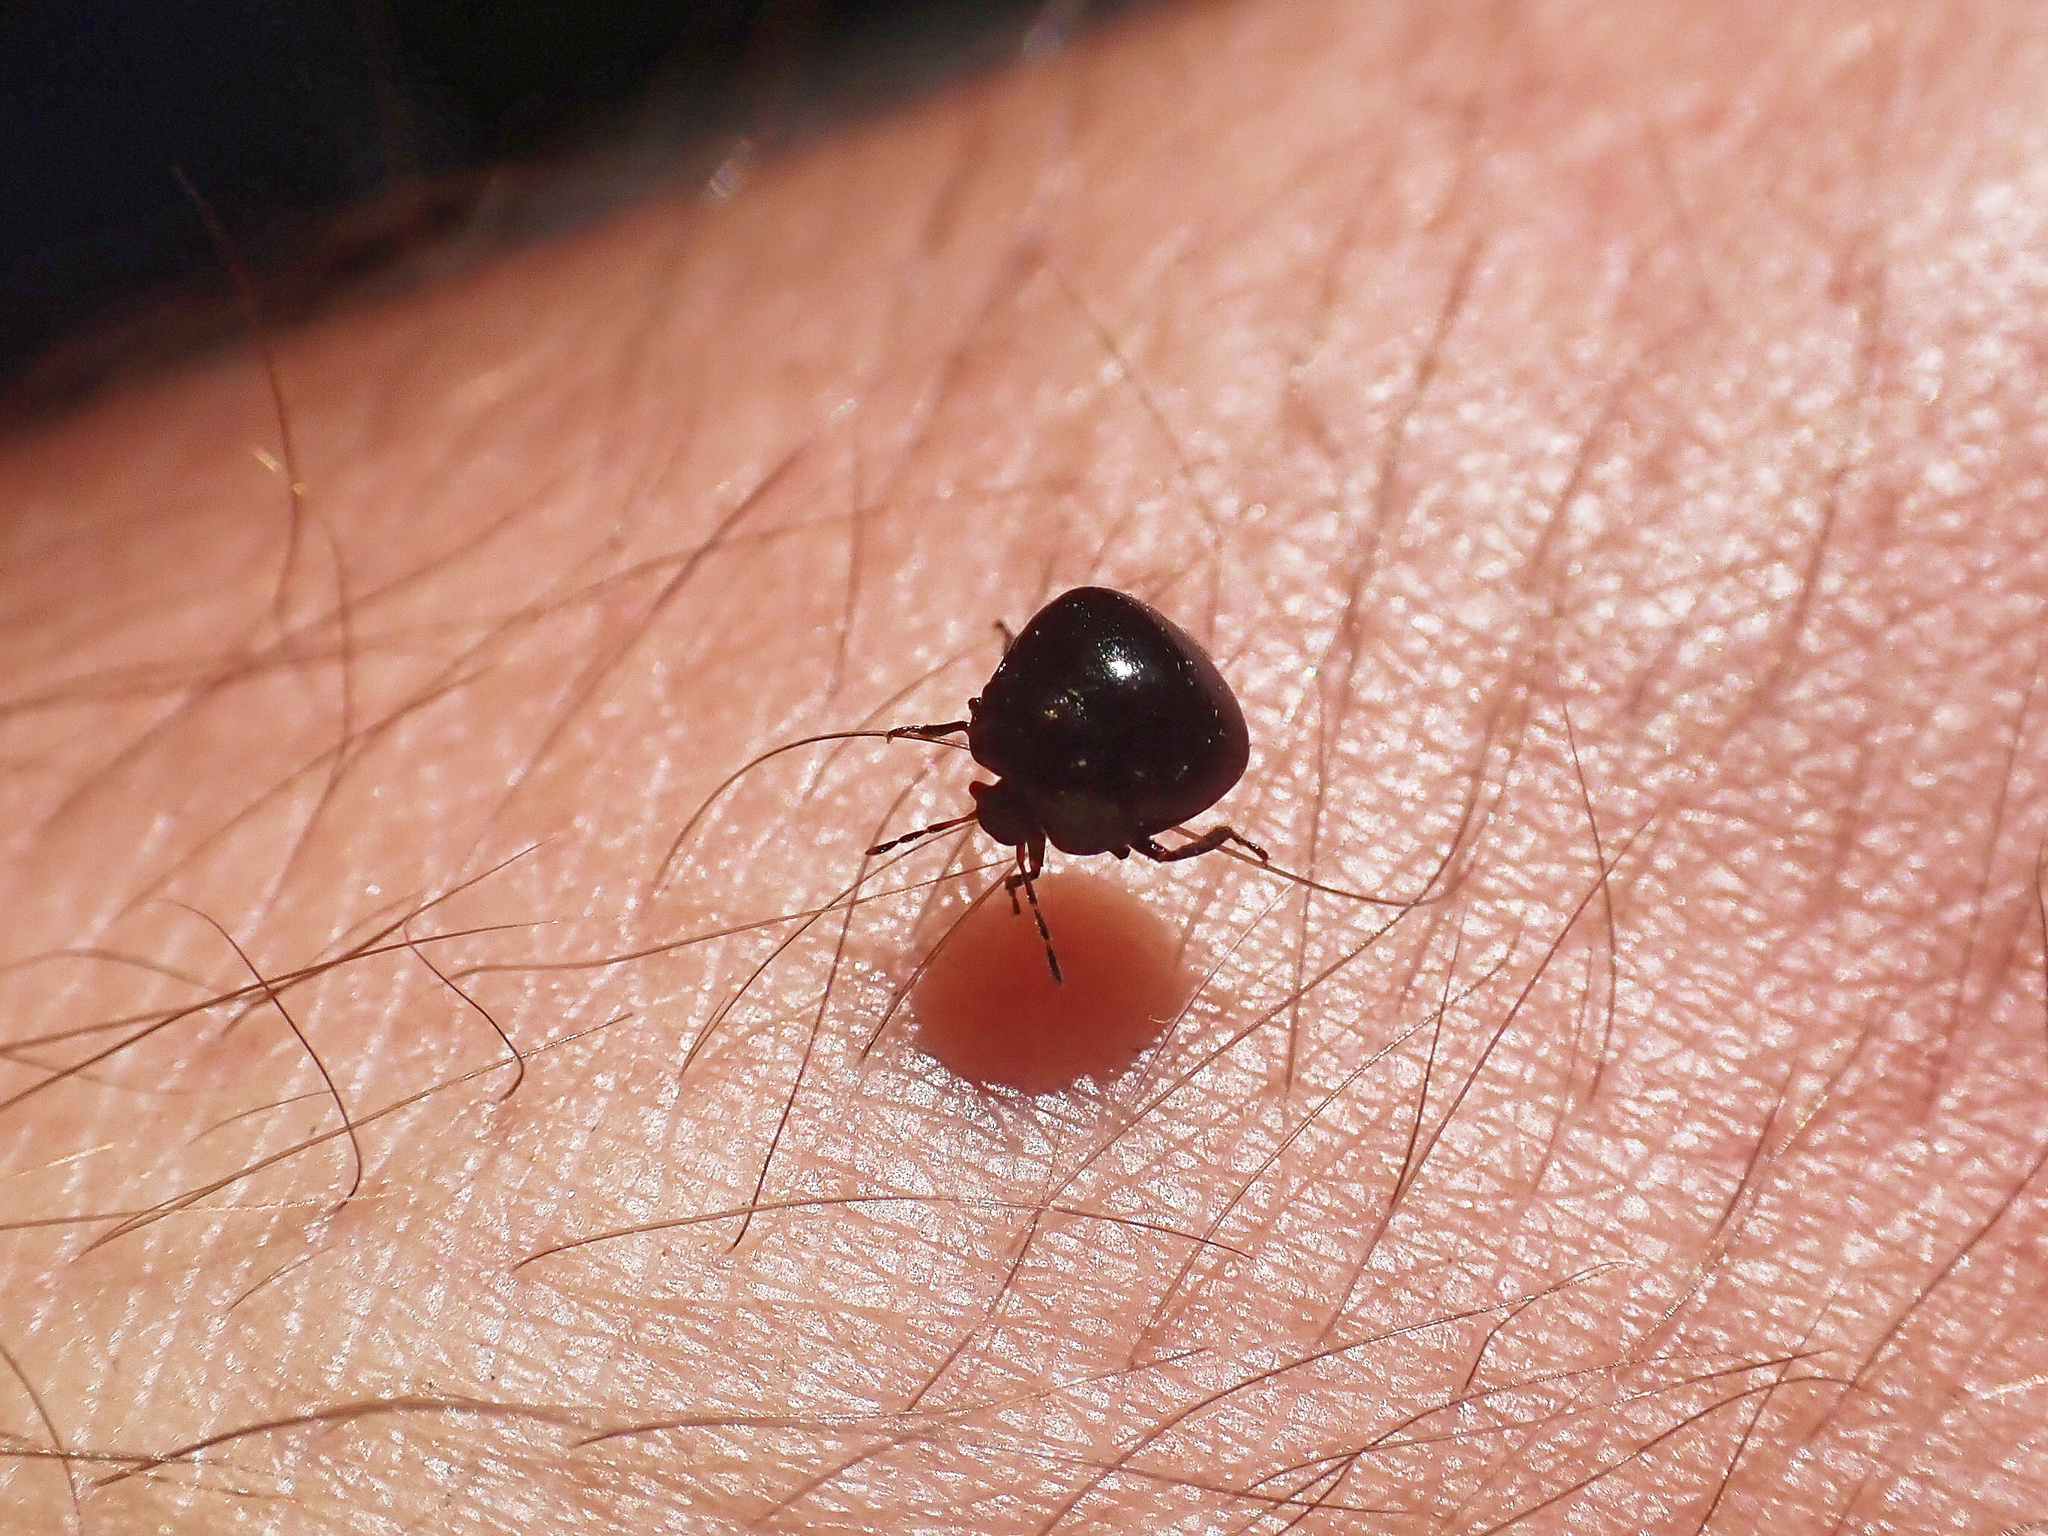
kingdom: Animalia
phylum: Arthropoda
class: Insecta
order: Hemiptera
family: Plataspidae
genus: Coptosoma
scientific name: Coptosoma scutellatum
